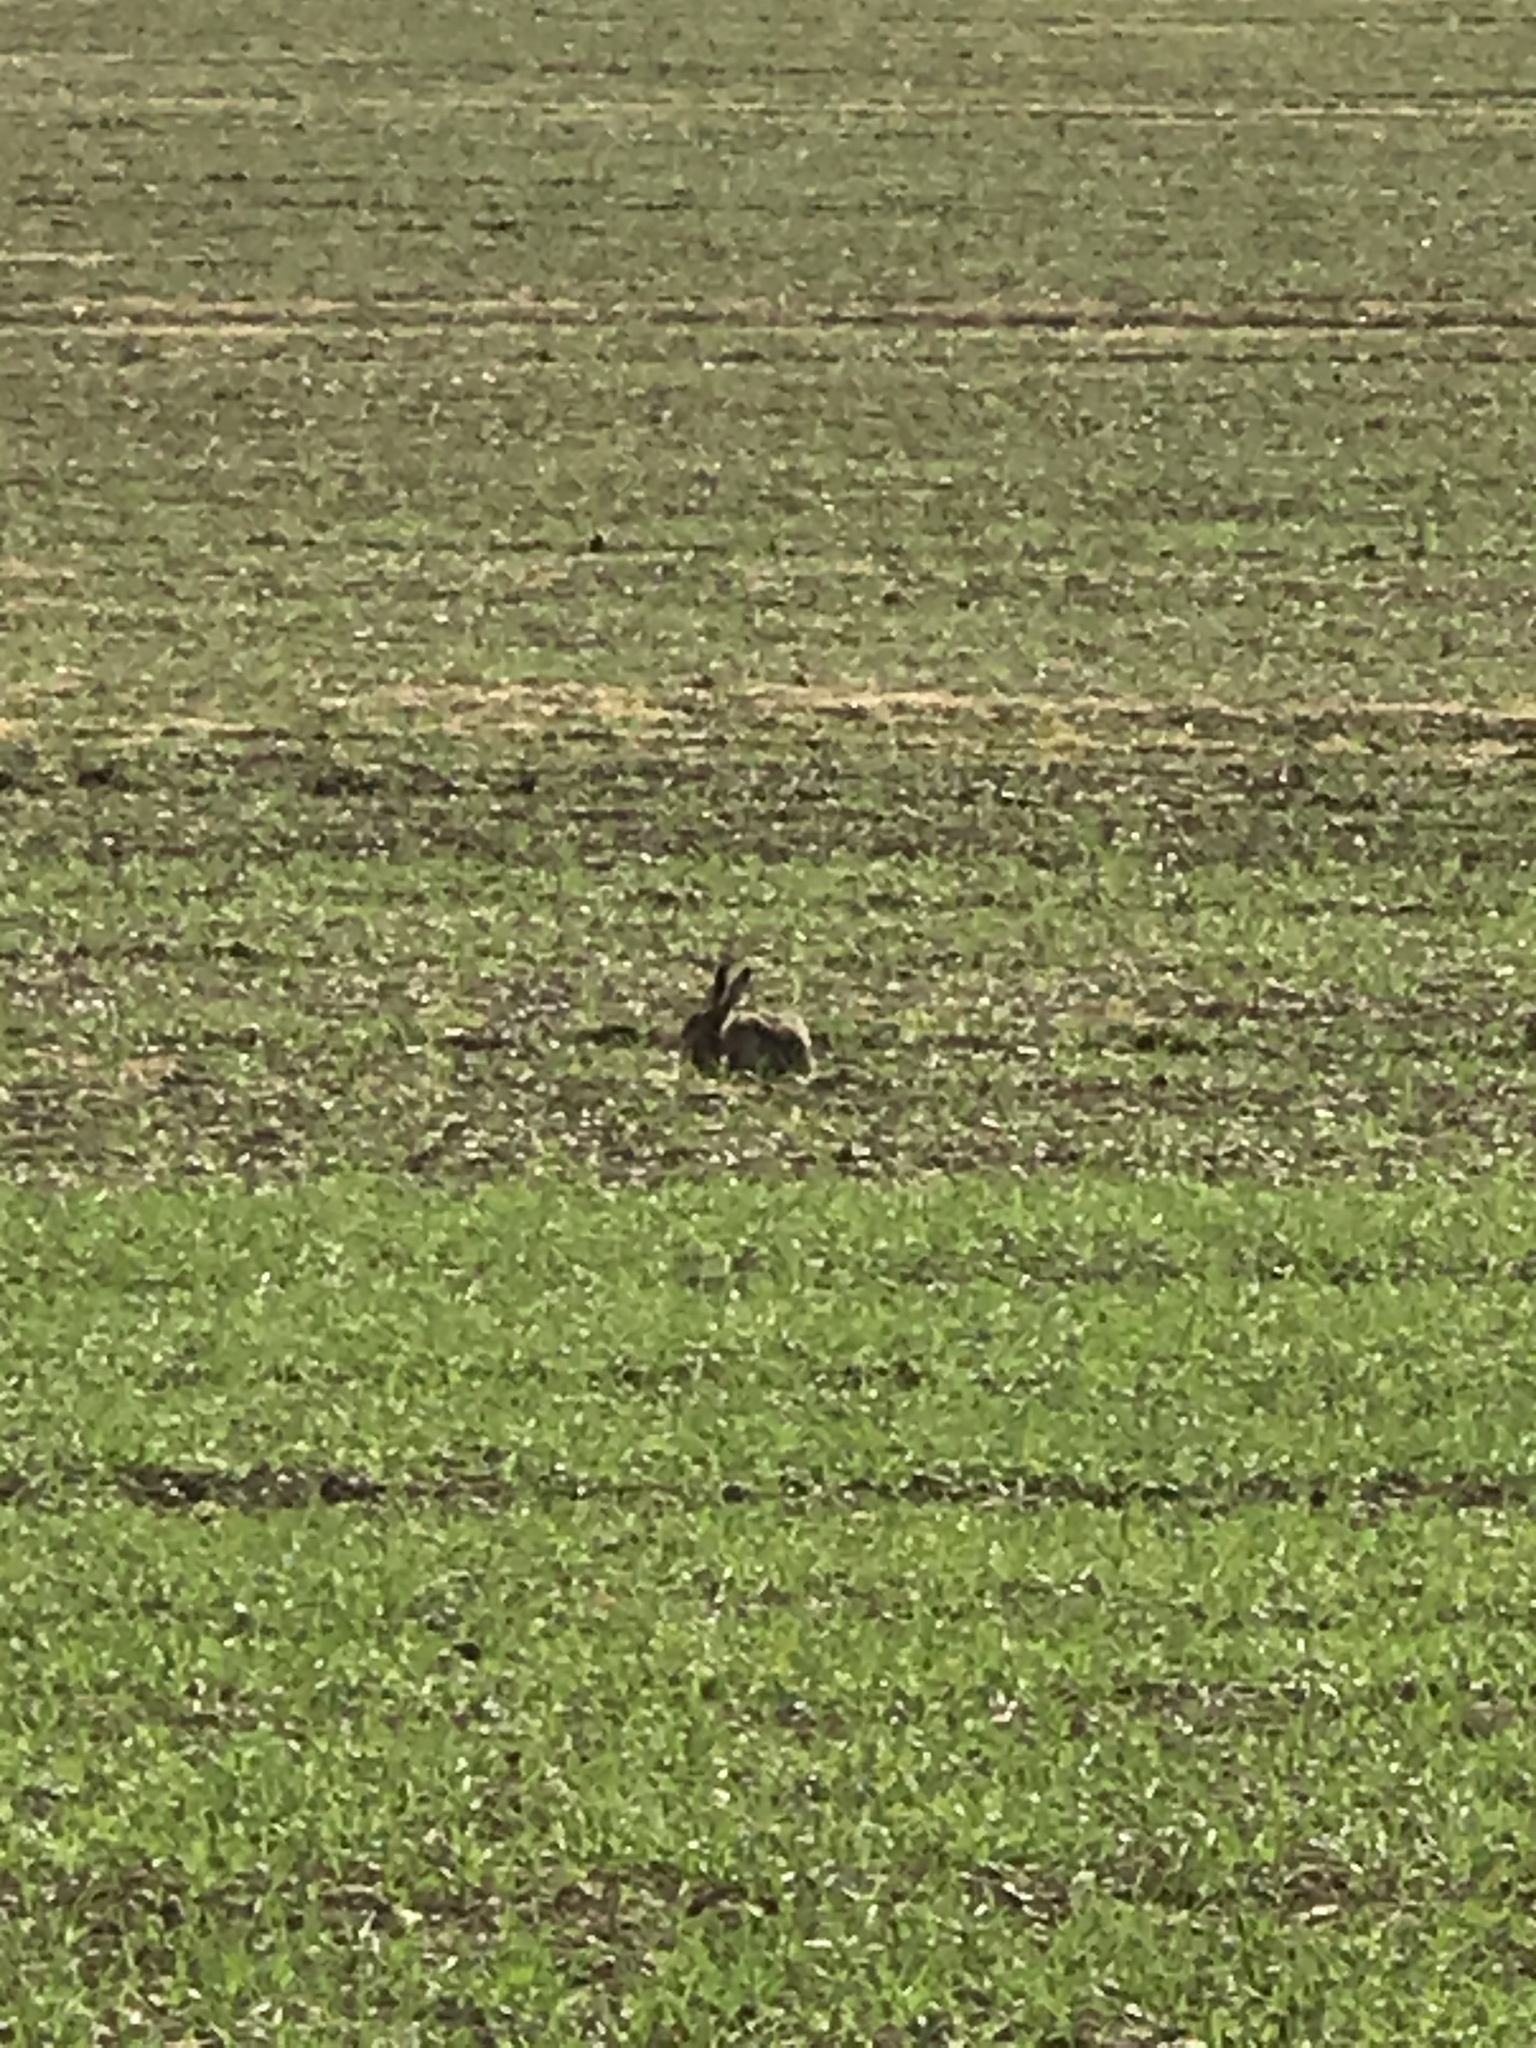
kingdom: Animalia
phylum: Chordata
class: Mammalia
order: Lagomorpha
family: Leporidae
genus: Lepus
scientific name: Lepus europaeus
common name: European hare
